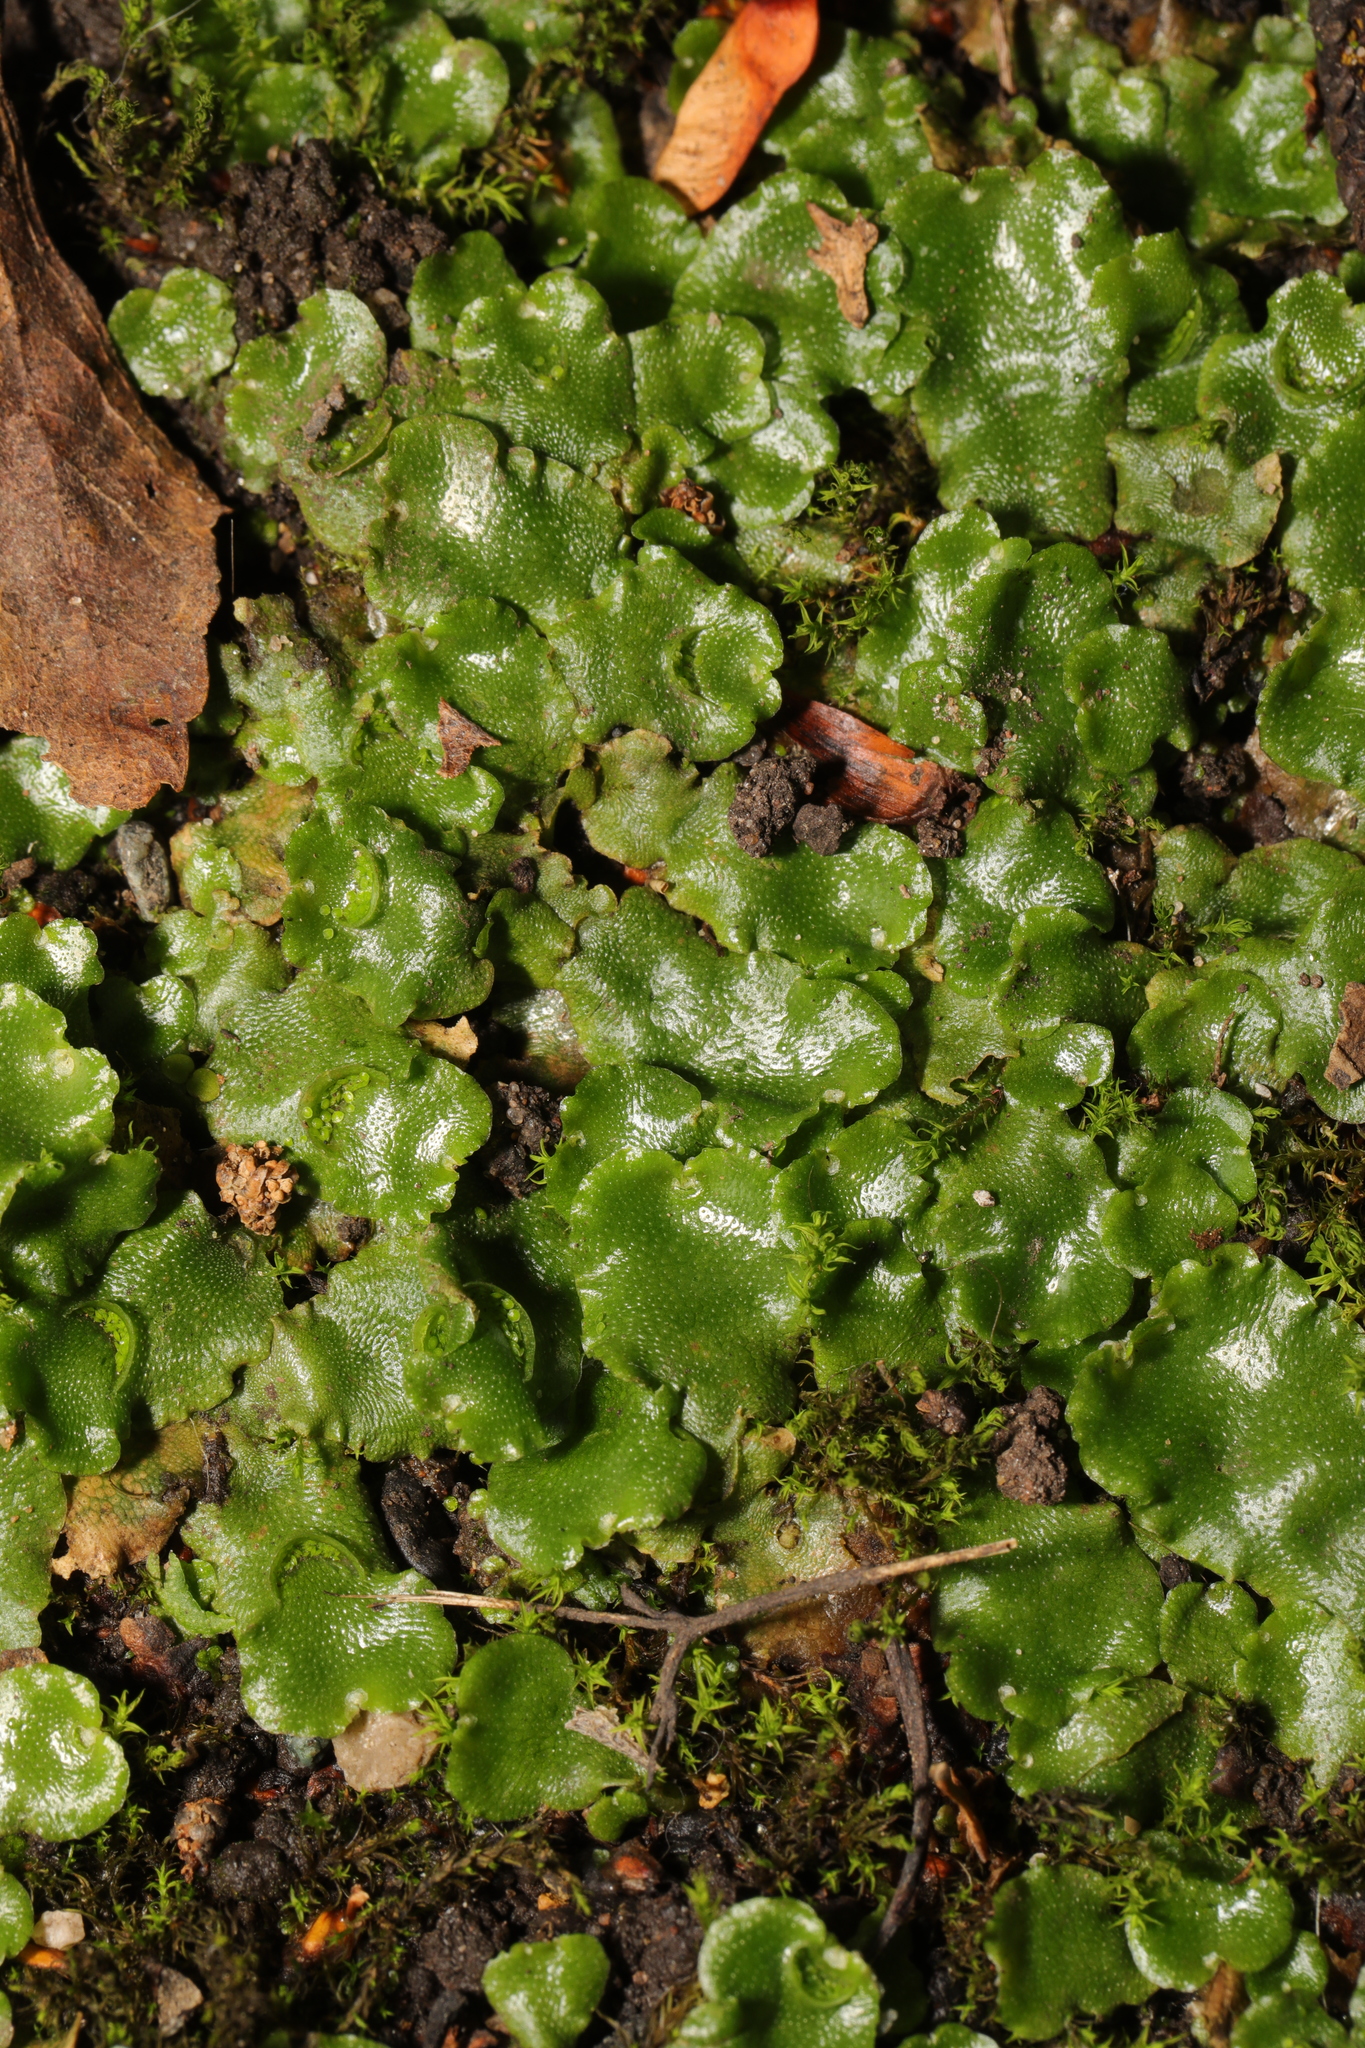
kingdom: Plantae
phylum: Marchantiophyta
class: Marchantiopsida
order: Lunulariales
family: Lunulariaceae
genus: Lunularia
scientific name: Lunularia cruciata
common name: Crescent-cup liverwort
